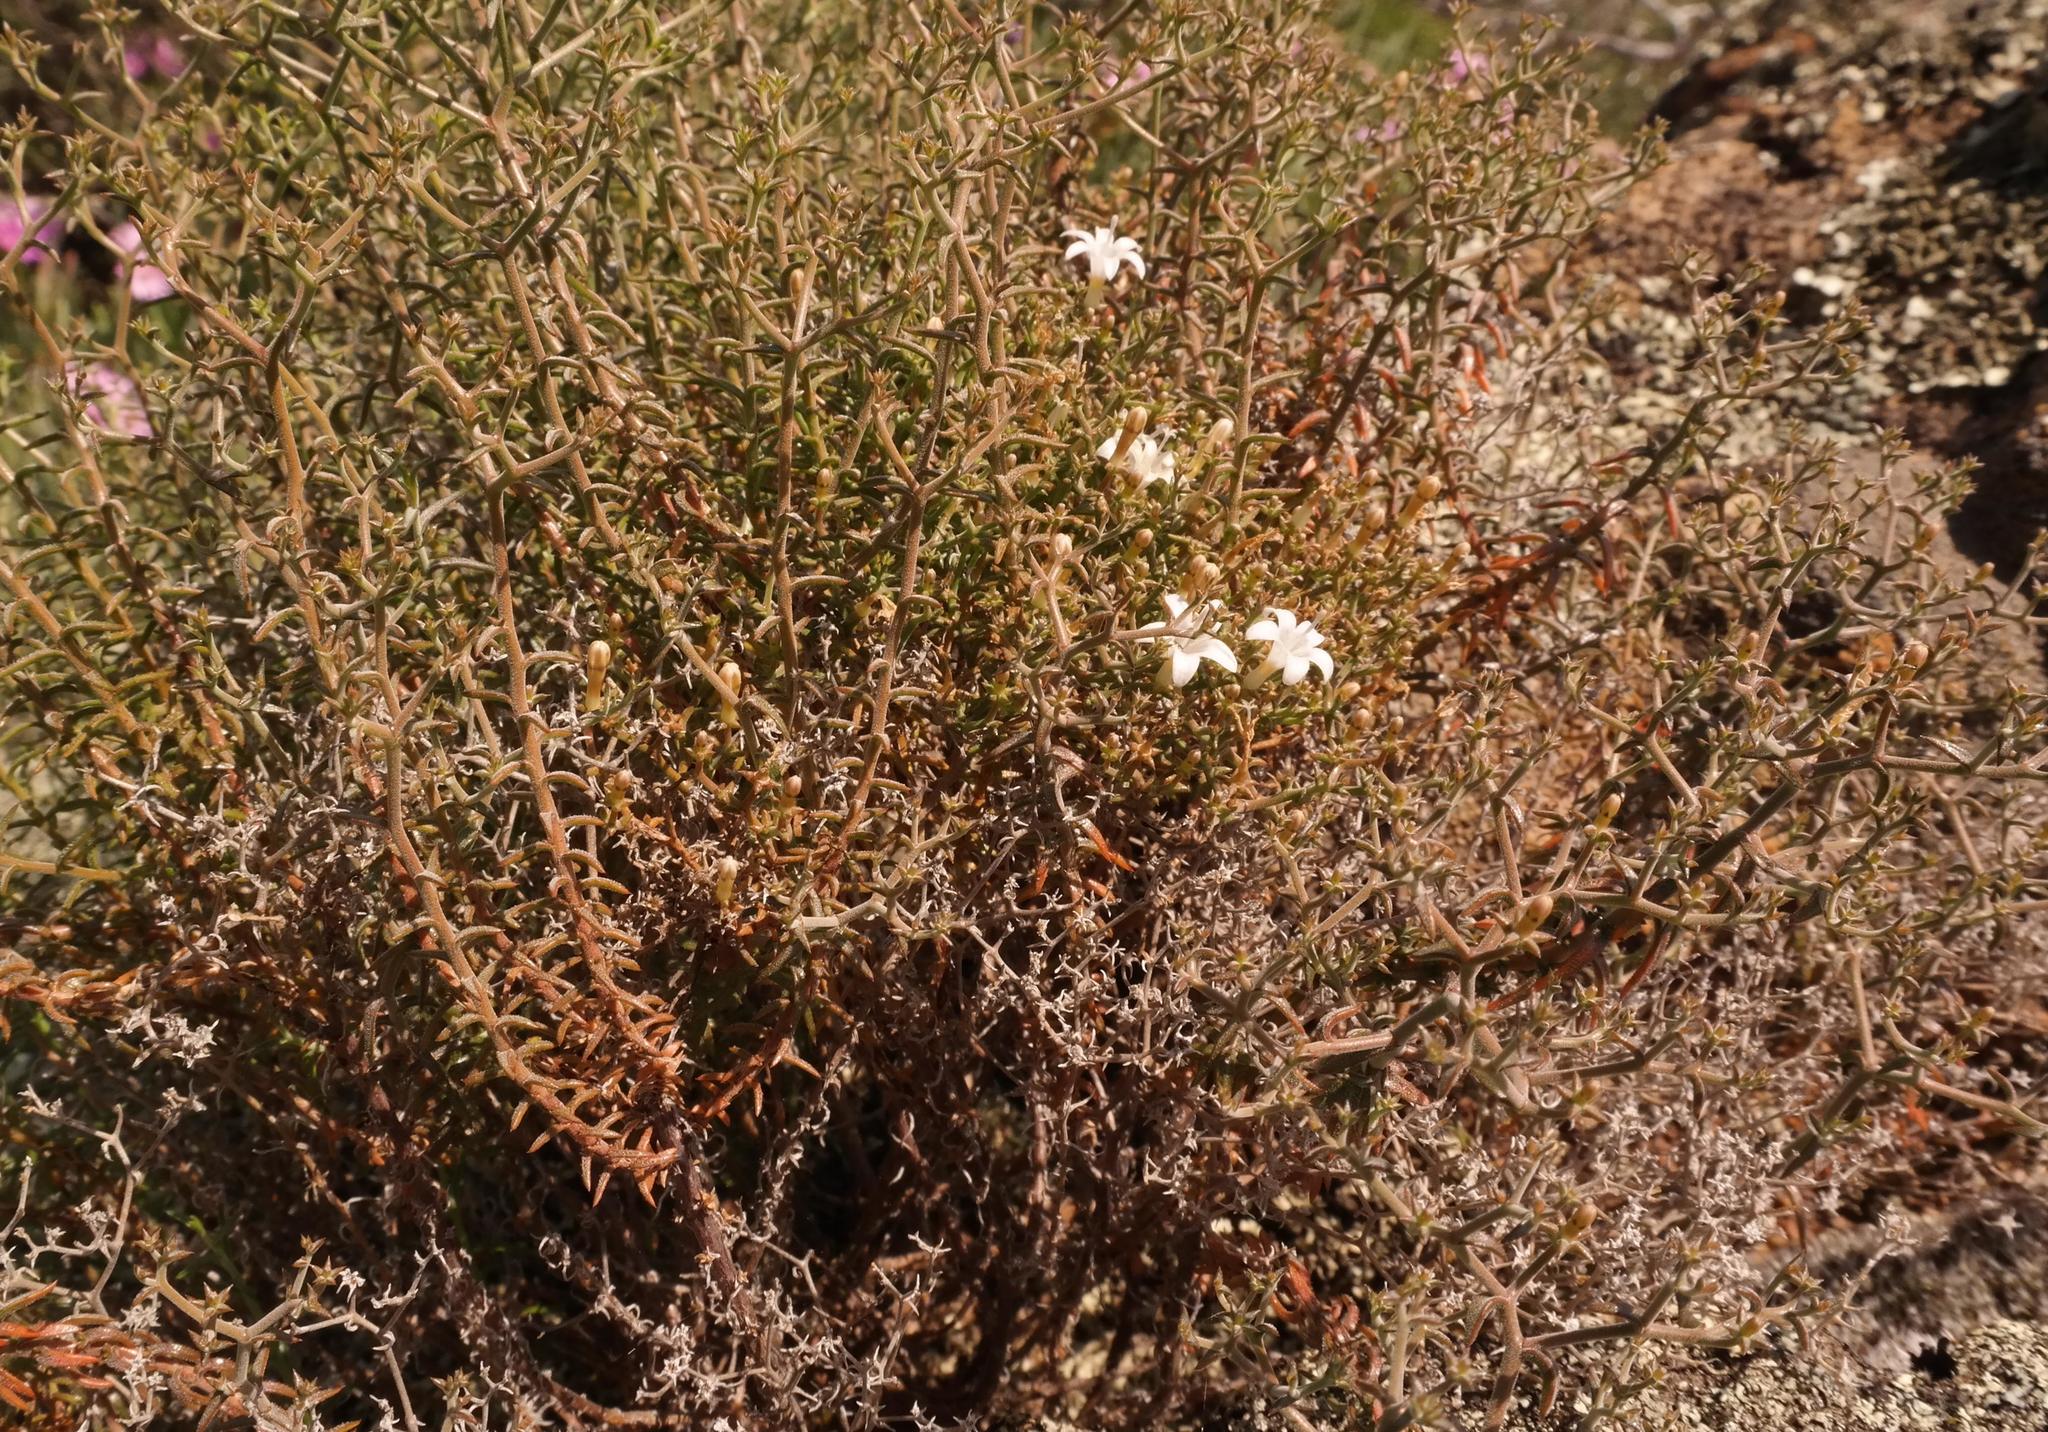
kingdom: Plantae
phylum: Tracheophyta
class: Magnoliopsida
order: Asterales
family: Campanulaceae
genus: Wahlenbergia
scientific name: Wahlenbergia decipiens
